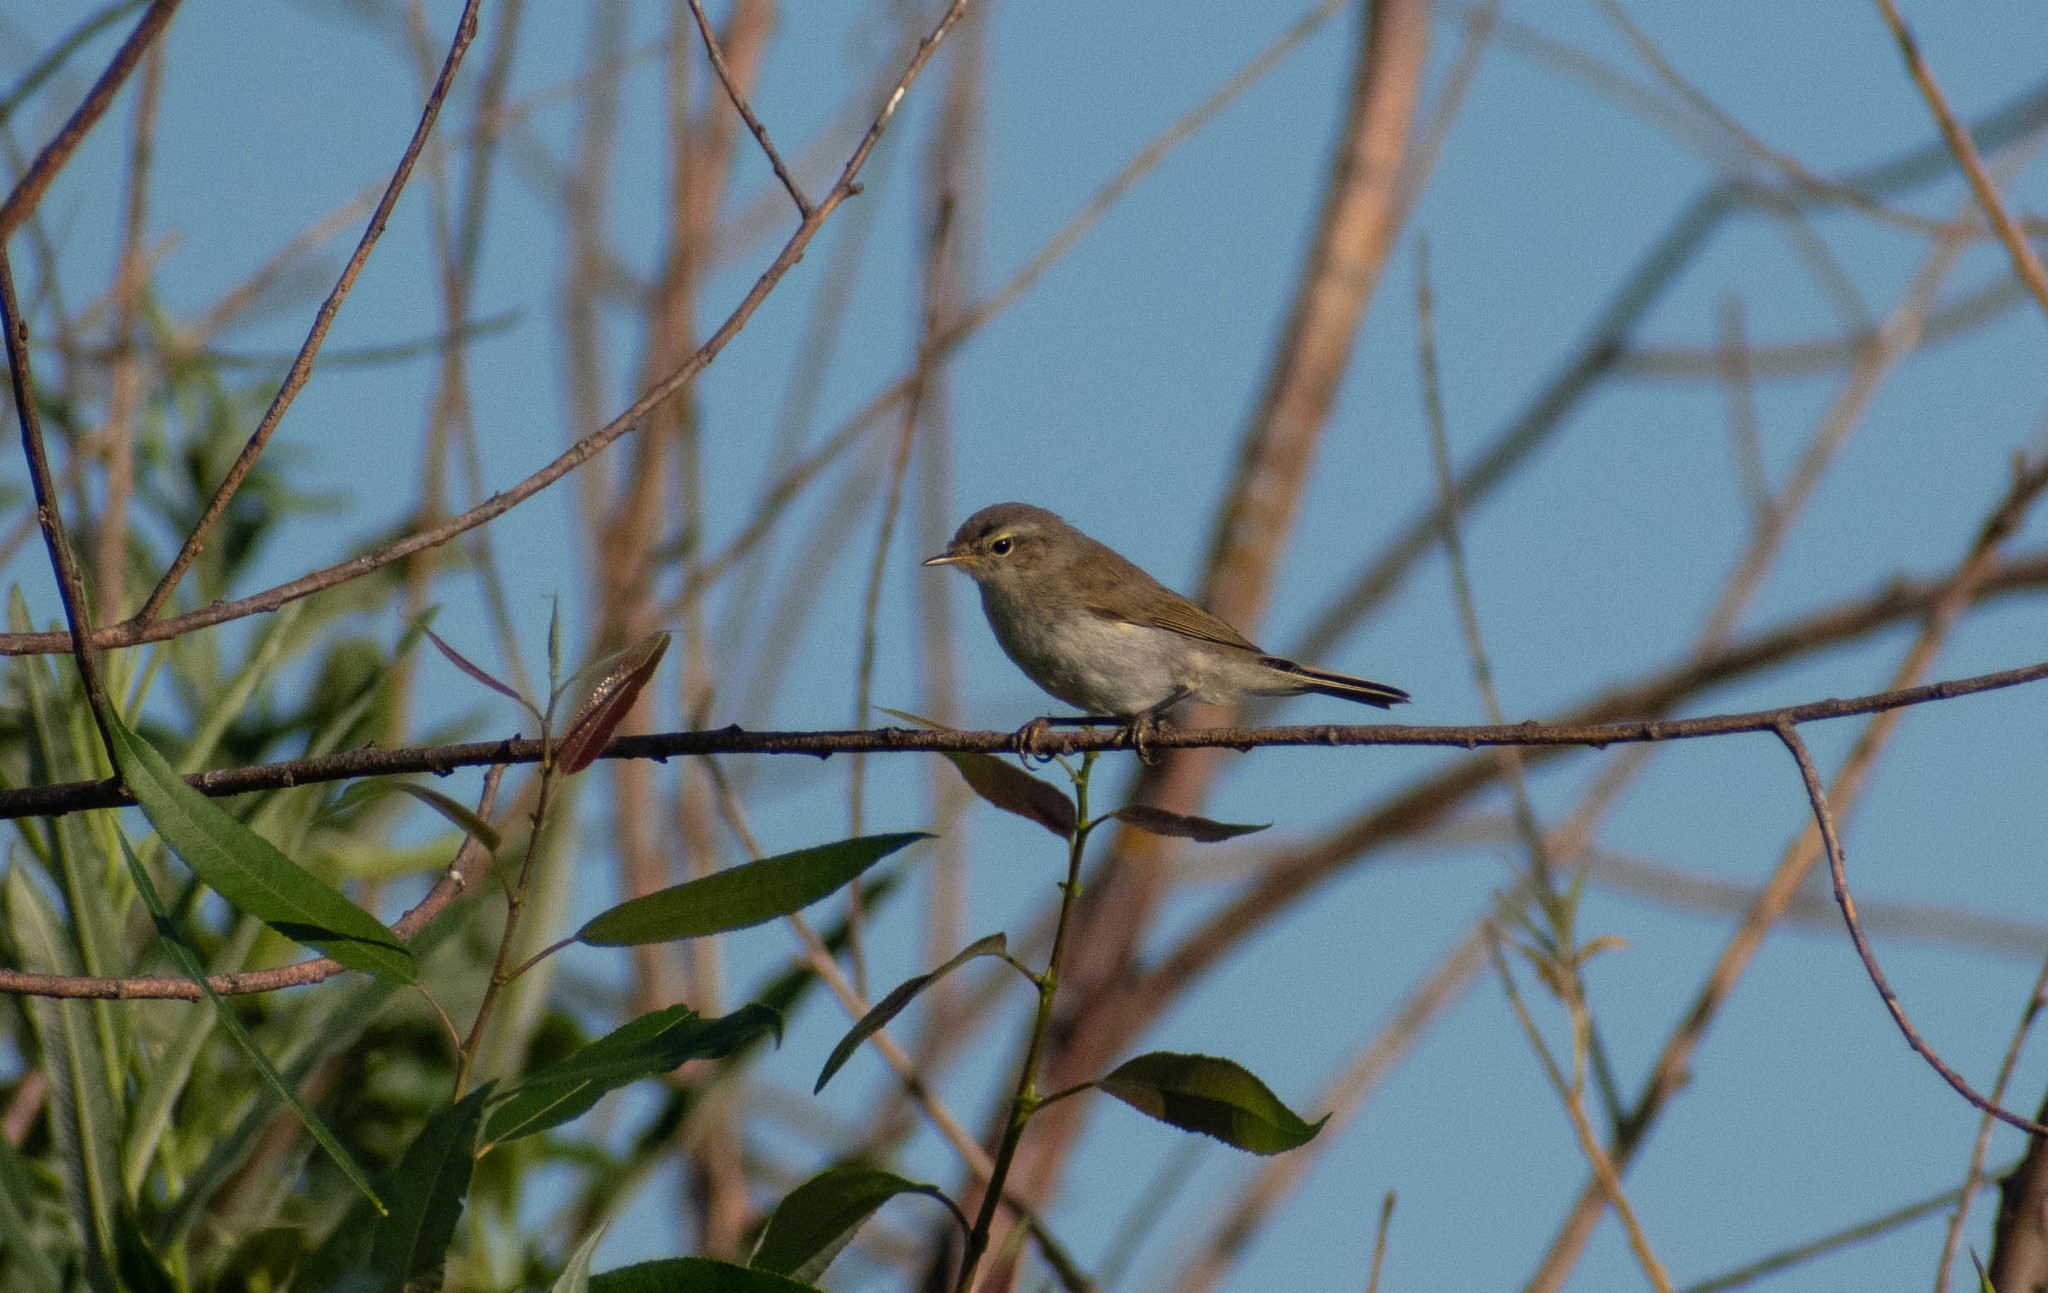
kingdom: Animalia
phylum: Chordata
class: Aves
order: Passeriformes
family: Phylloscopidae
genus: Phylloscopus
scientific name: Phylloscopus collybita
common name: Common chiffchaff
